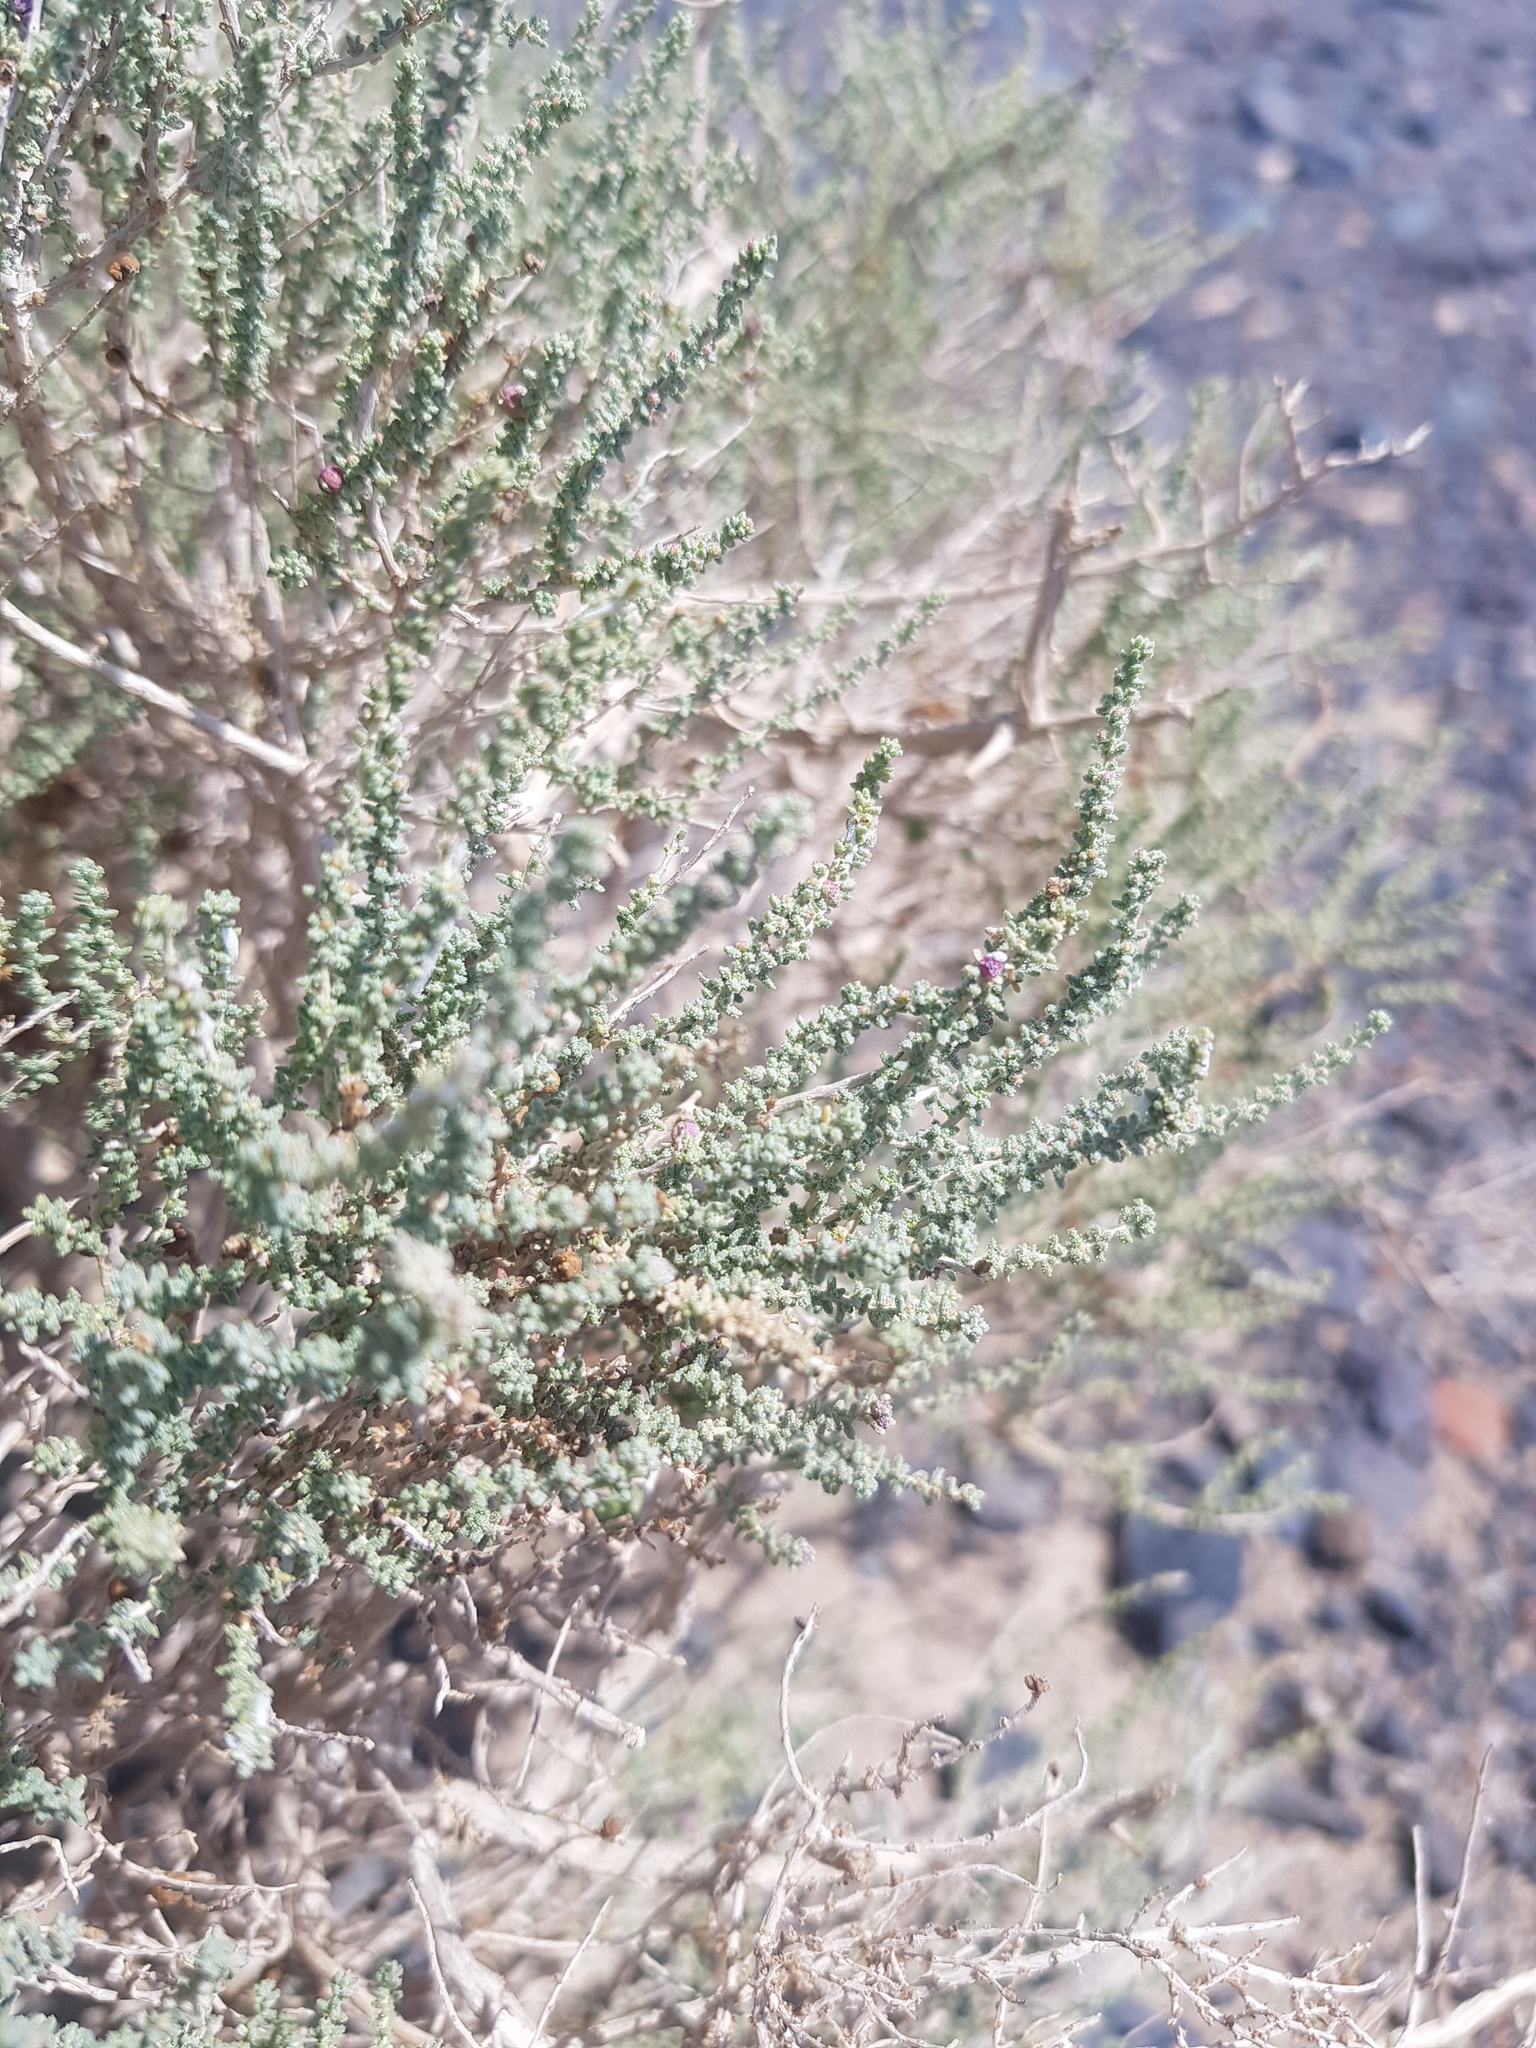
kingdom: Plantae
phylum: Tracheophyta
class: Magnoliopsida
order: Caryophyllales
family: Tamaricaceae
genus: Reaumuria
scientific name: Reaumuria songarica
